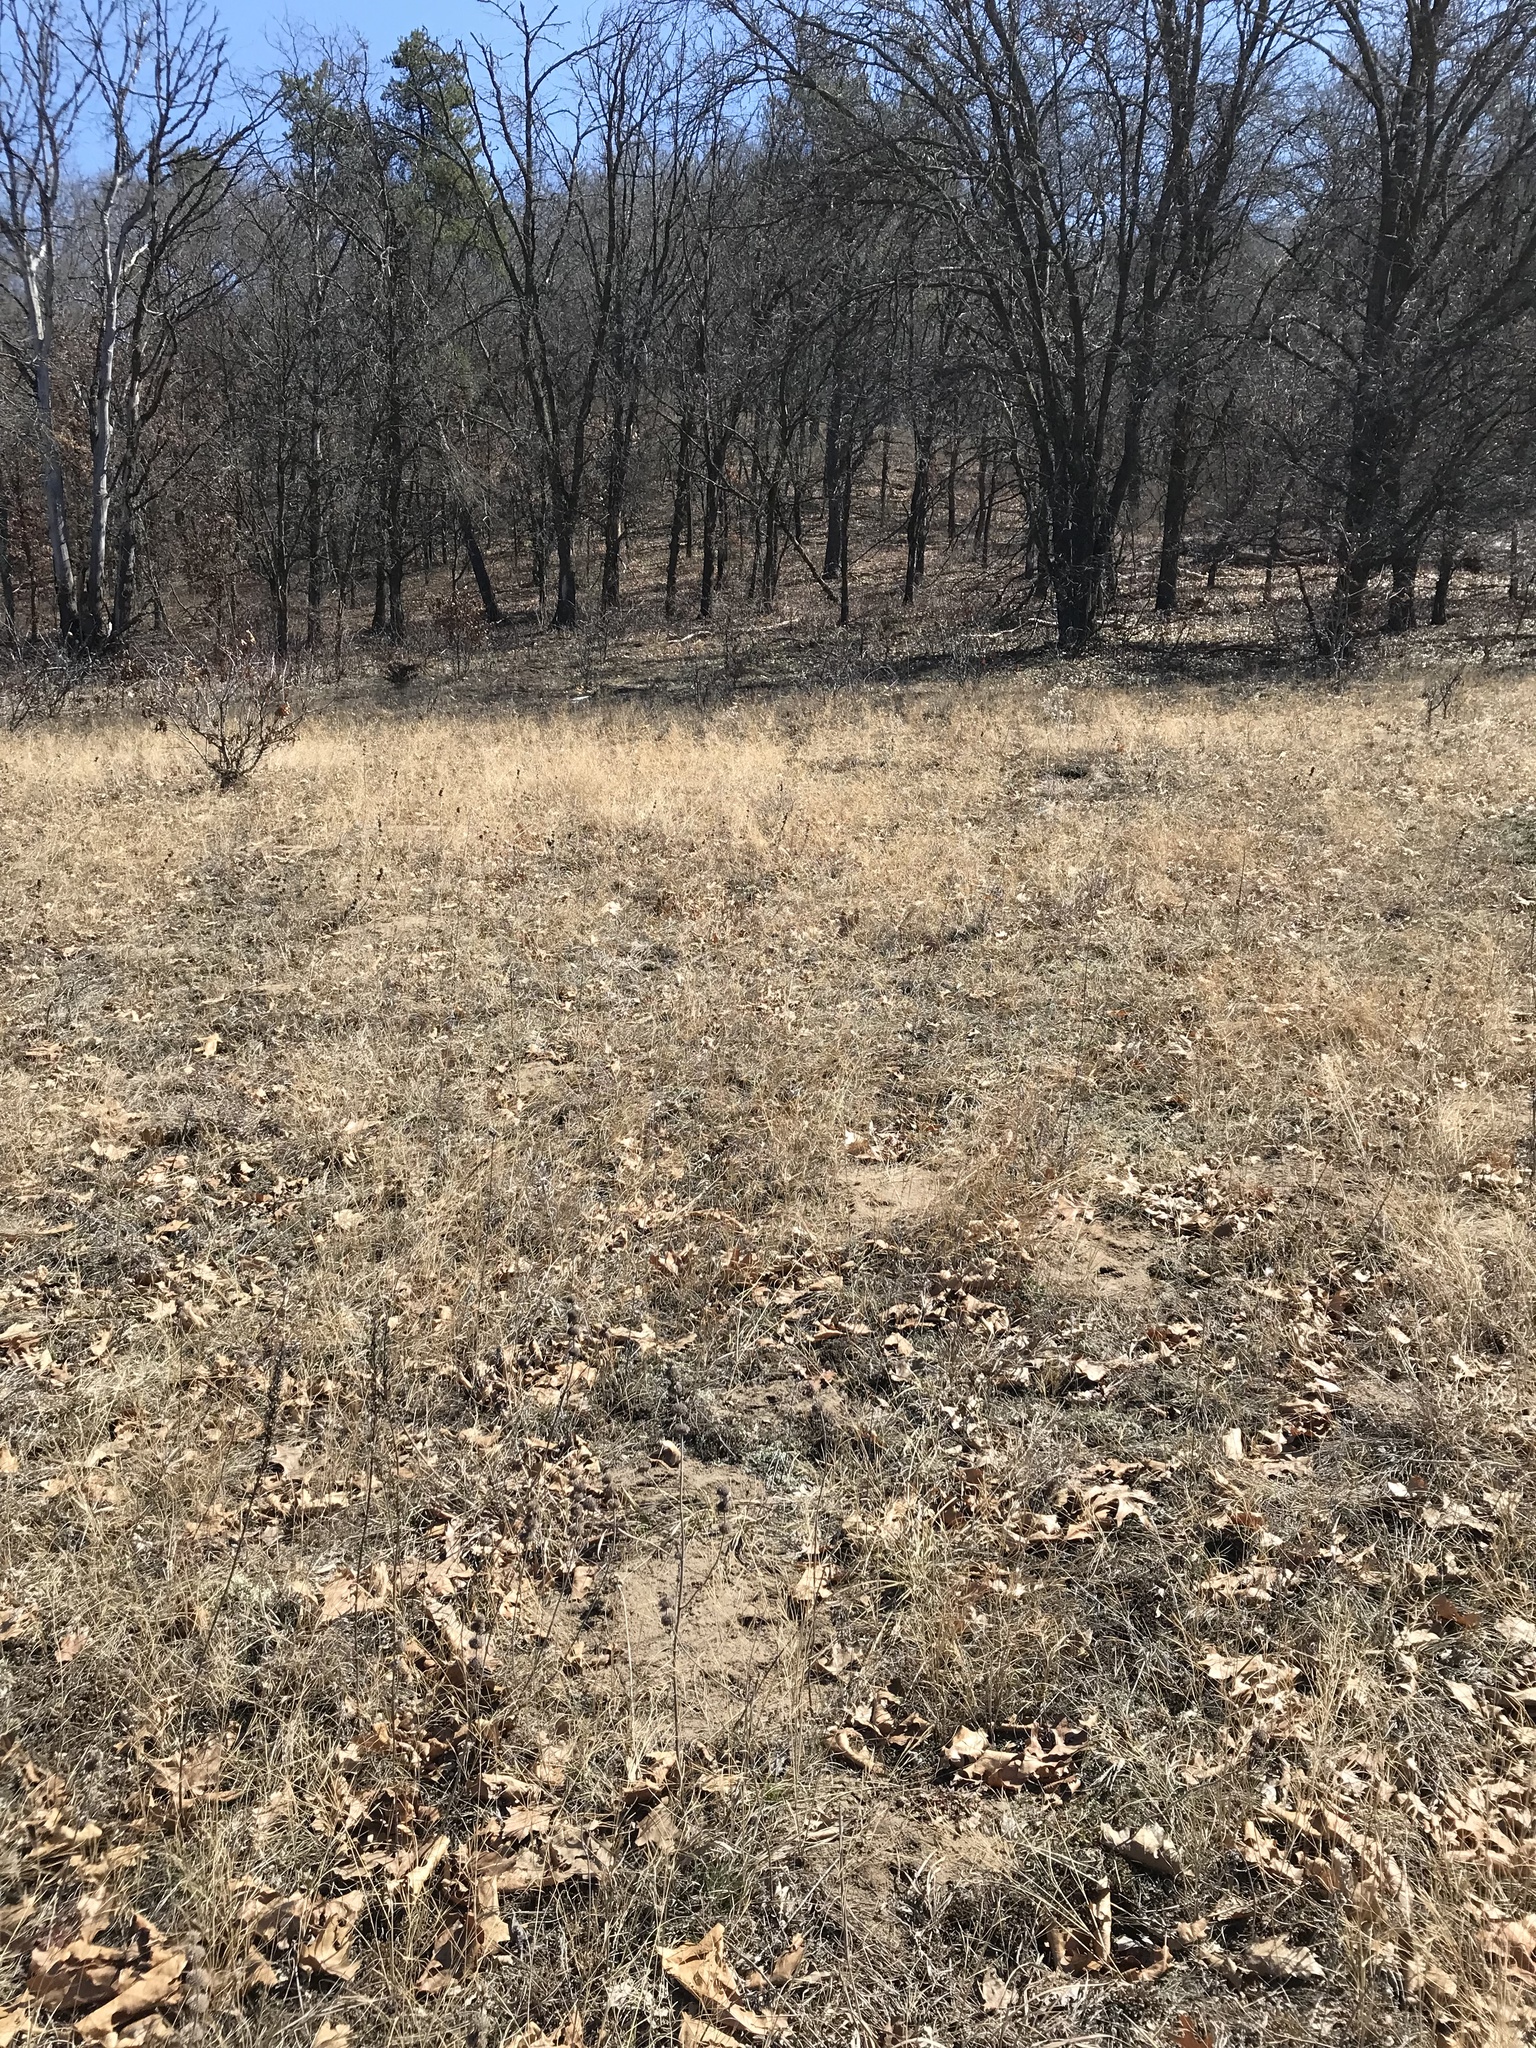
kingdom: Plantae
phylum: Tracheophyta
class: Liliopsida
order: Poales
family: Poaceae
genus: Aristida
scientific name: Aristida tuberculosa
